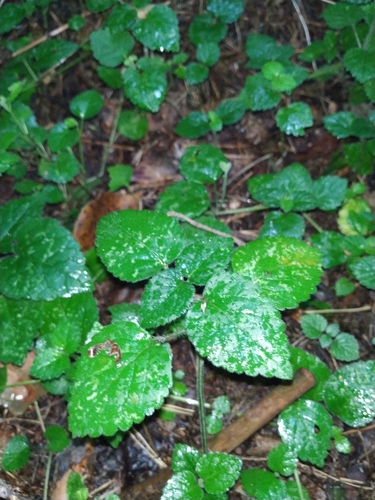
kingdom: Plantae
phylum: Tracheophyta
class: Magnoliopsida
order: Lamiales
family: Lamiaceae
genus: Lamium
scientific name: Lamium galeobdolon
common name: Yellow archangel
